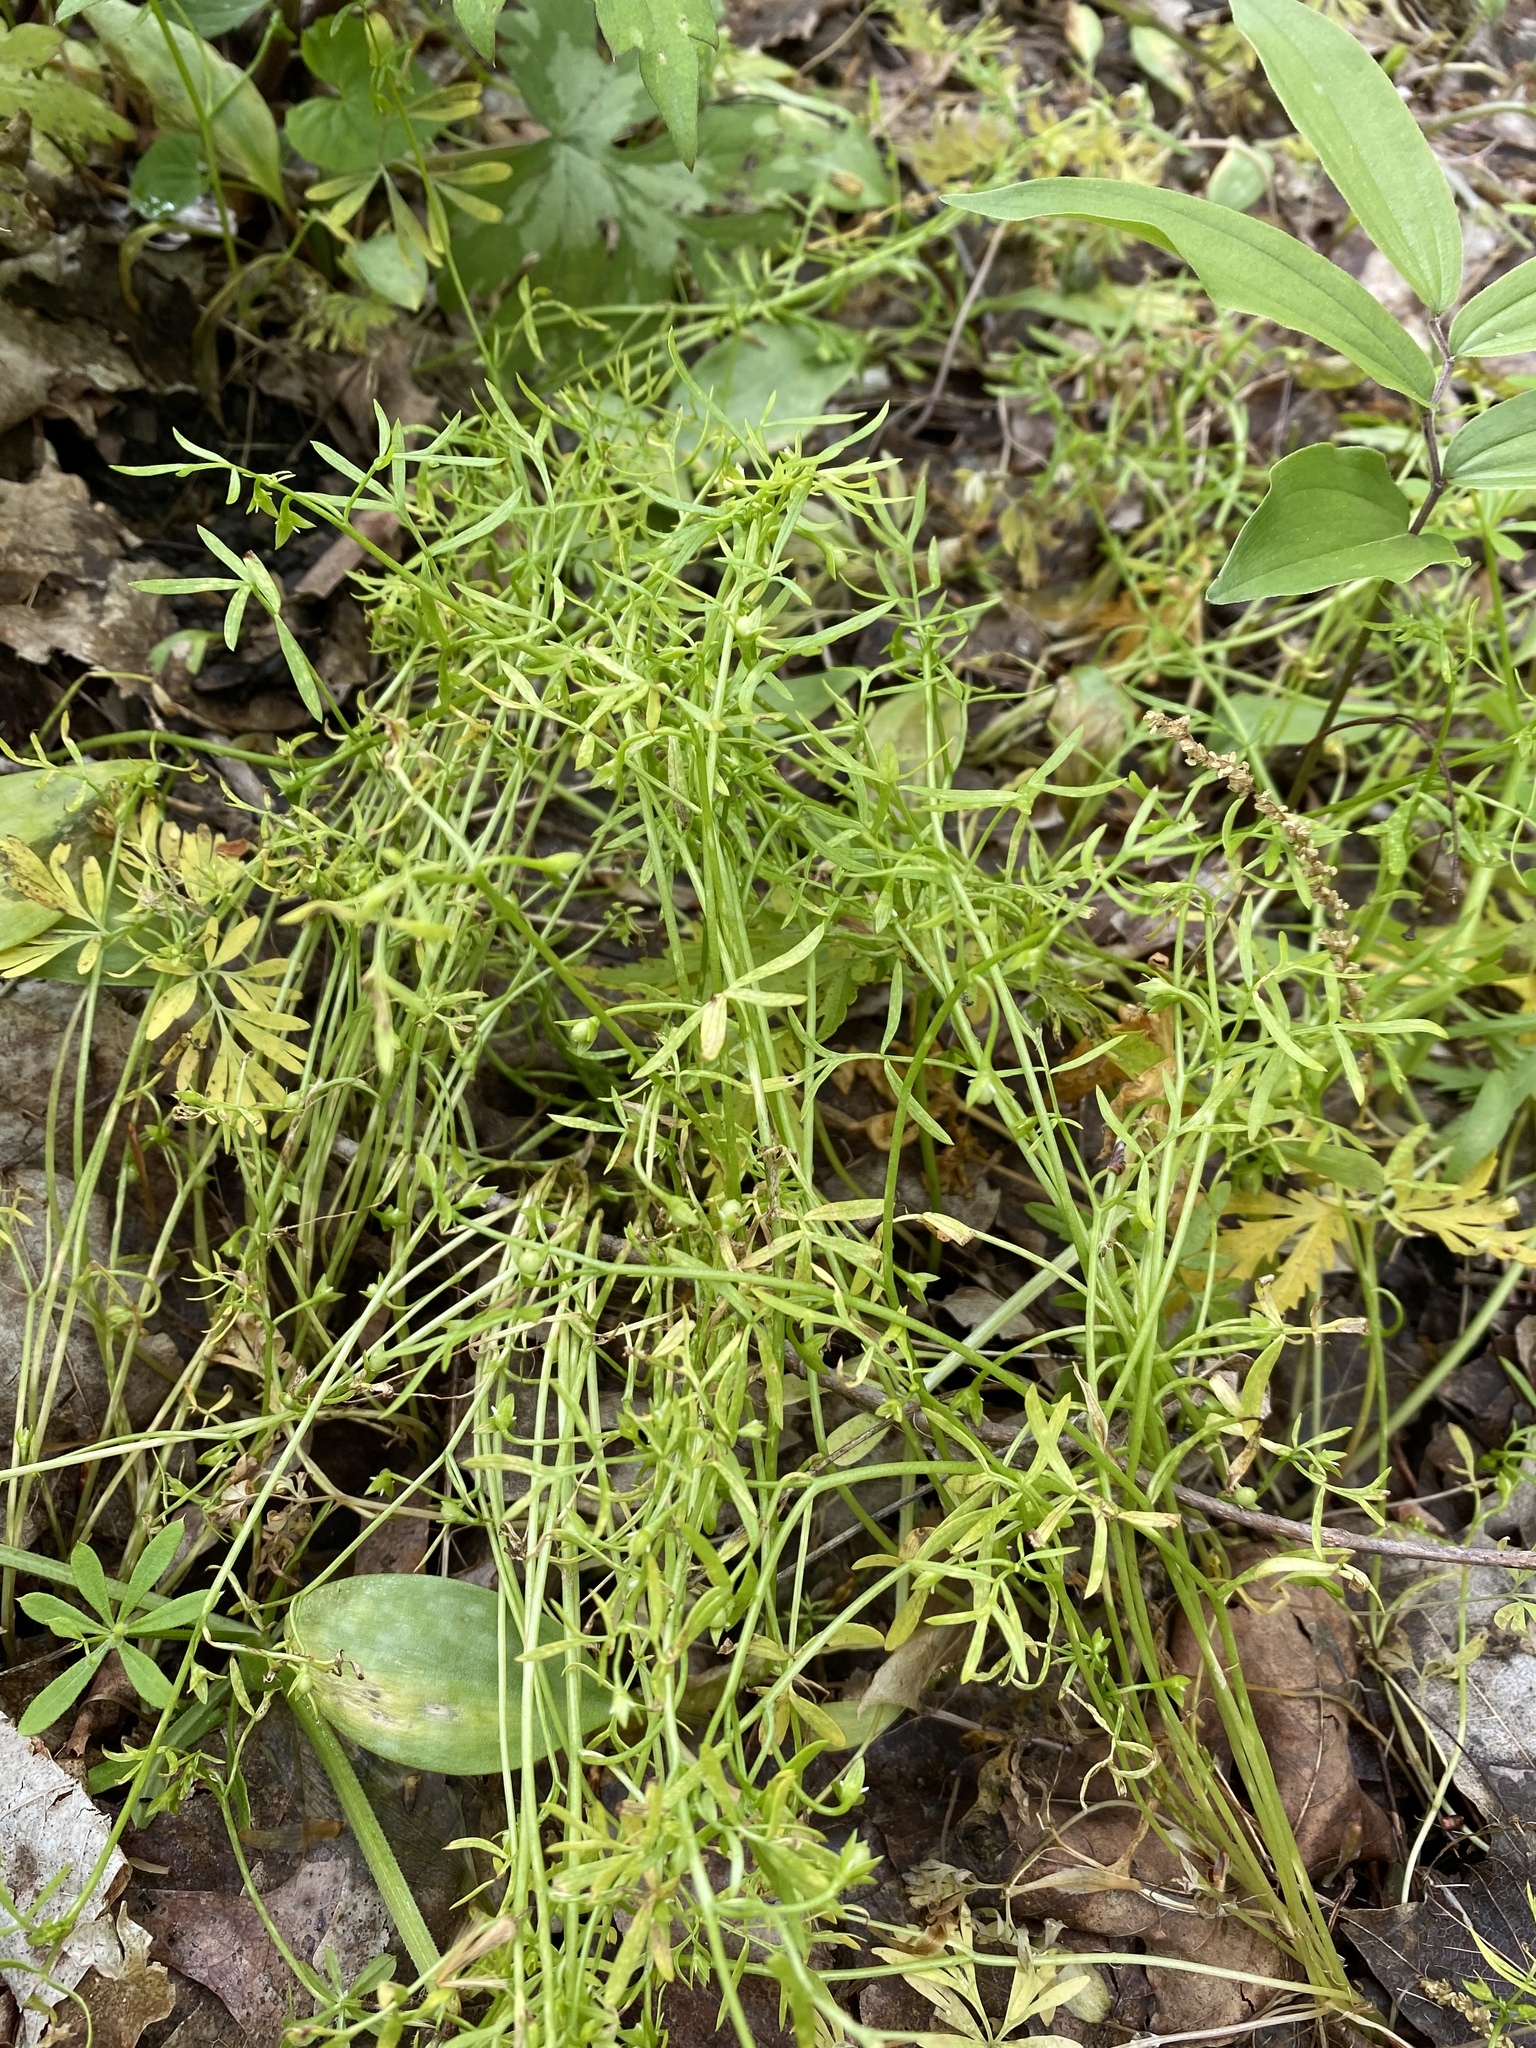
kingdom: Plantae
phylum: Tracheophyta
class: Magnoliopsida
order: Brassicales
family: Limnanthaceae
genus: Floerkea
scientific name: Floerkea proserpinacoides
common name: False mermaid
